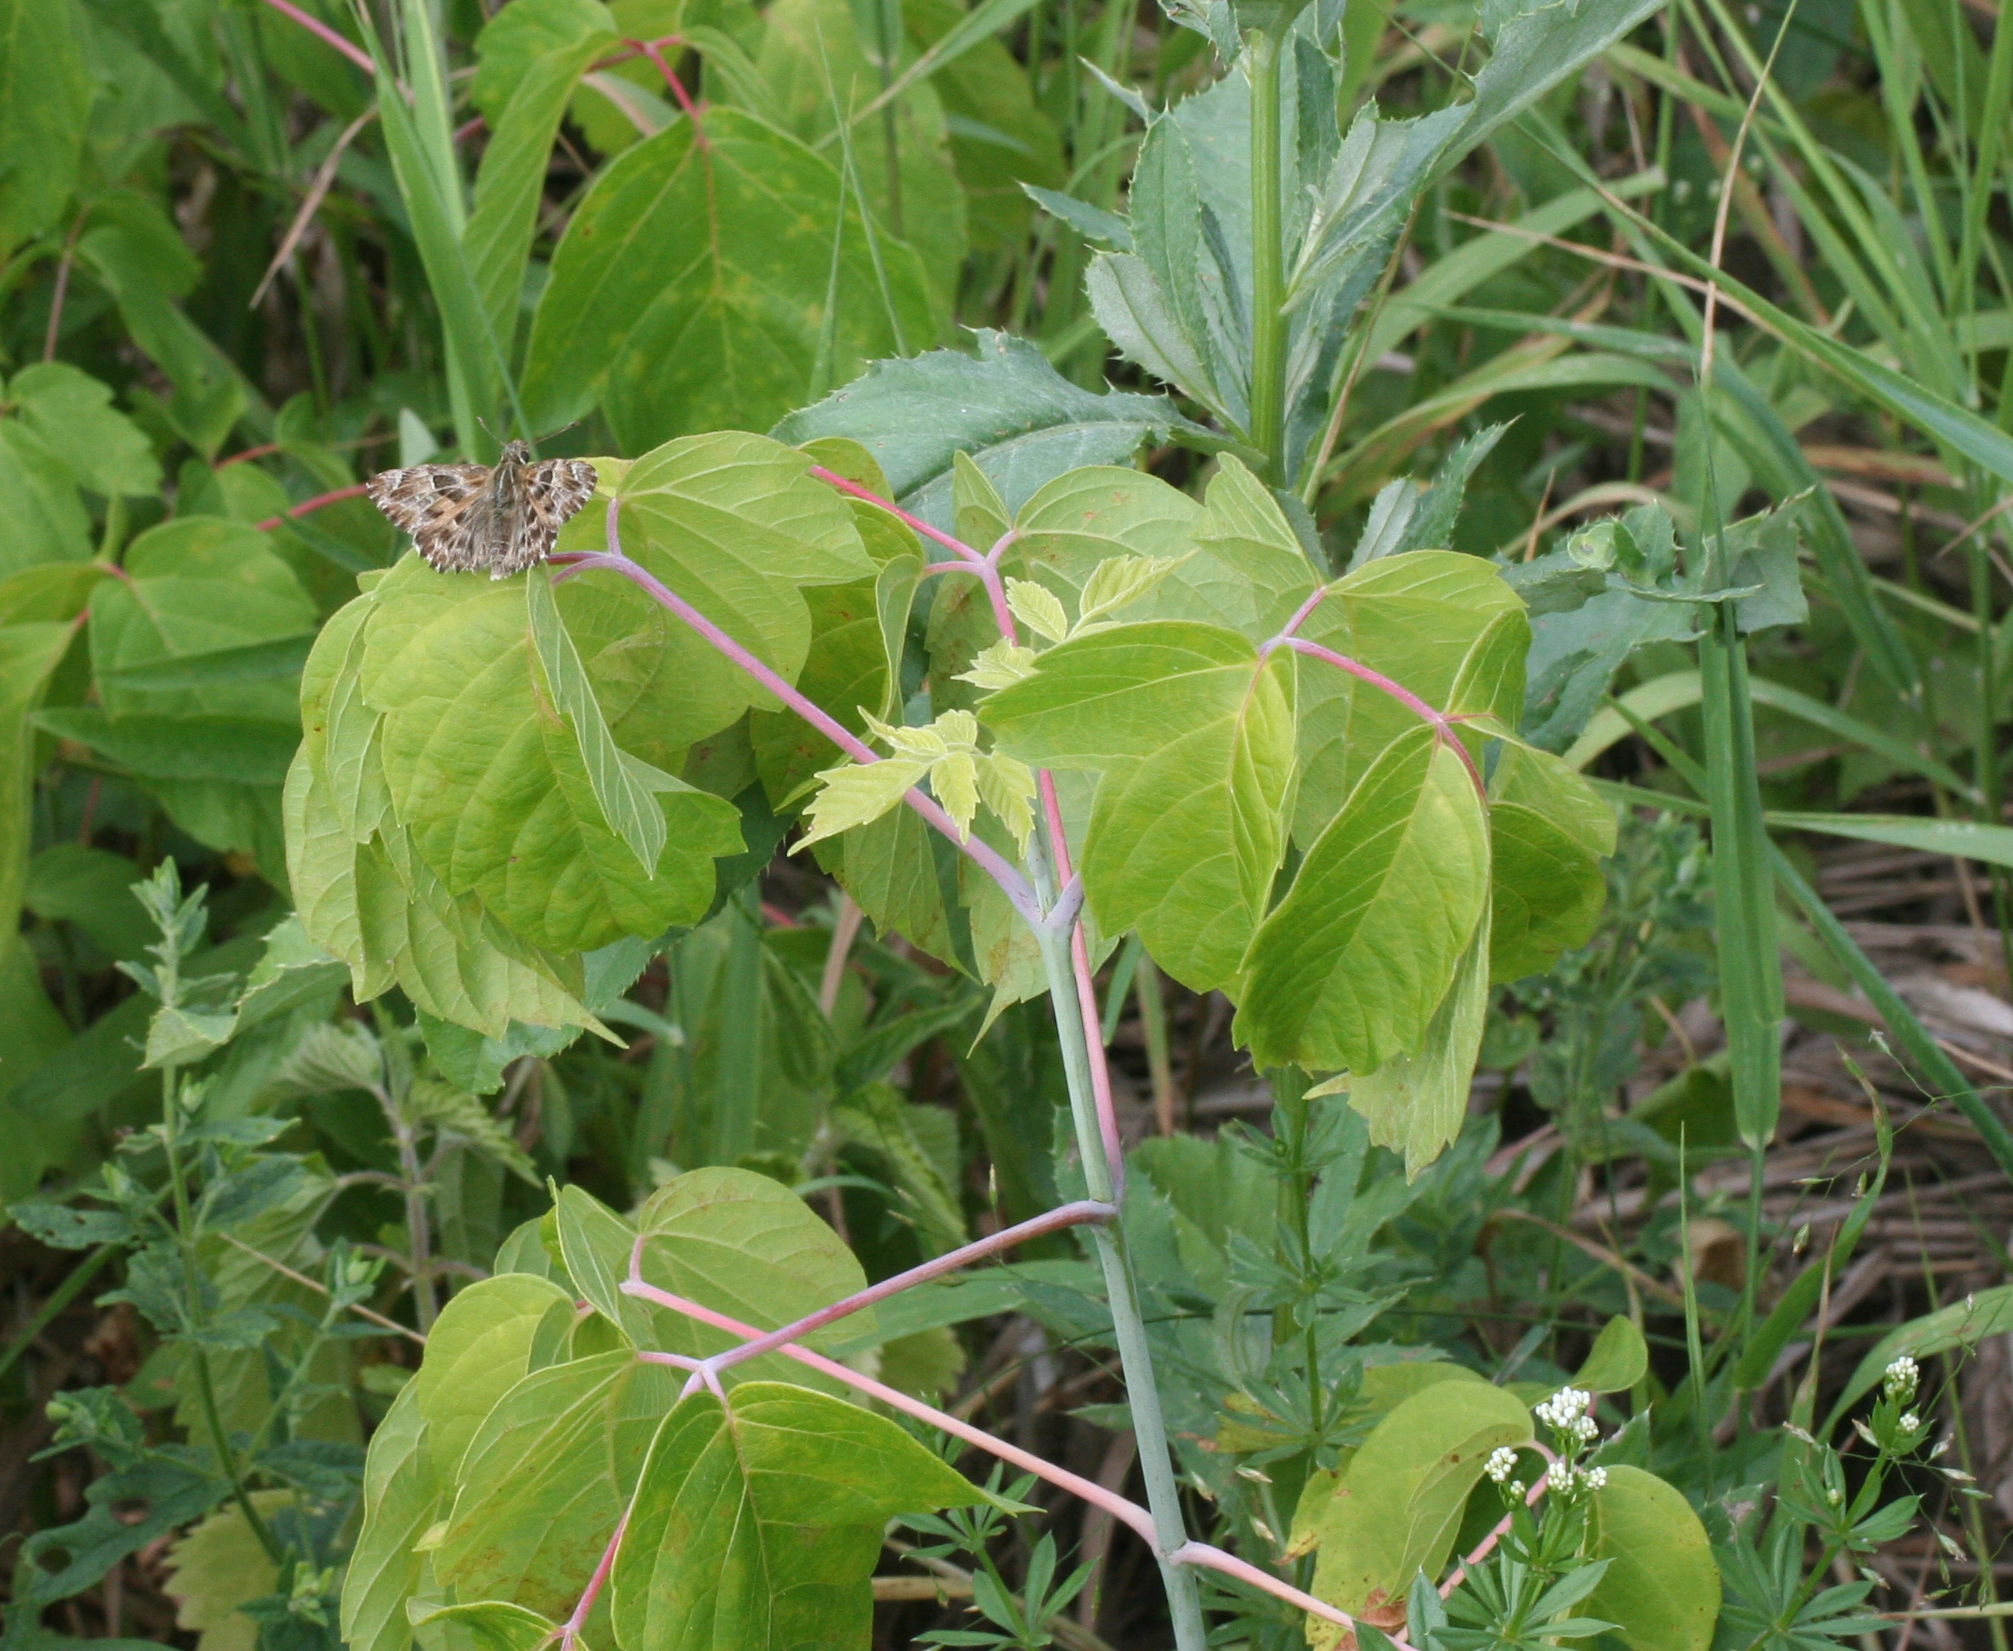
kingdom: Plantae
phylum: Tracheophyta
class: Magnoliopsida
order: Sapindales
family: Sapindaceae
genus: Acer
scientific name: Acer negundo
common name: Ashleaf maple
